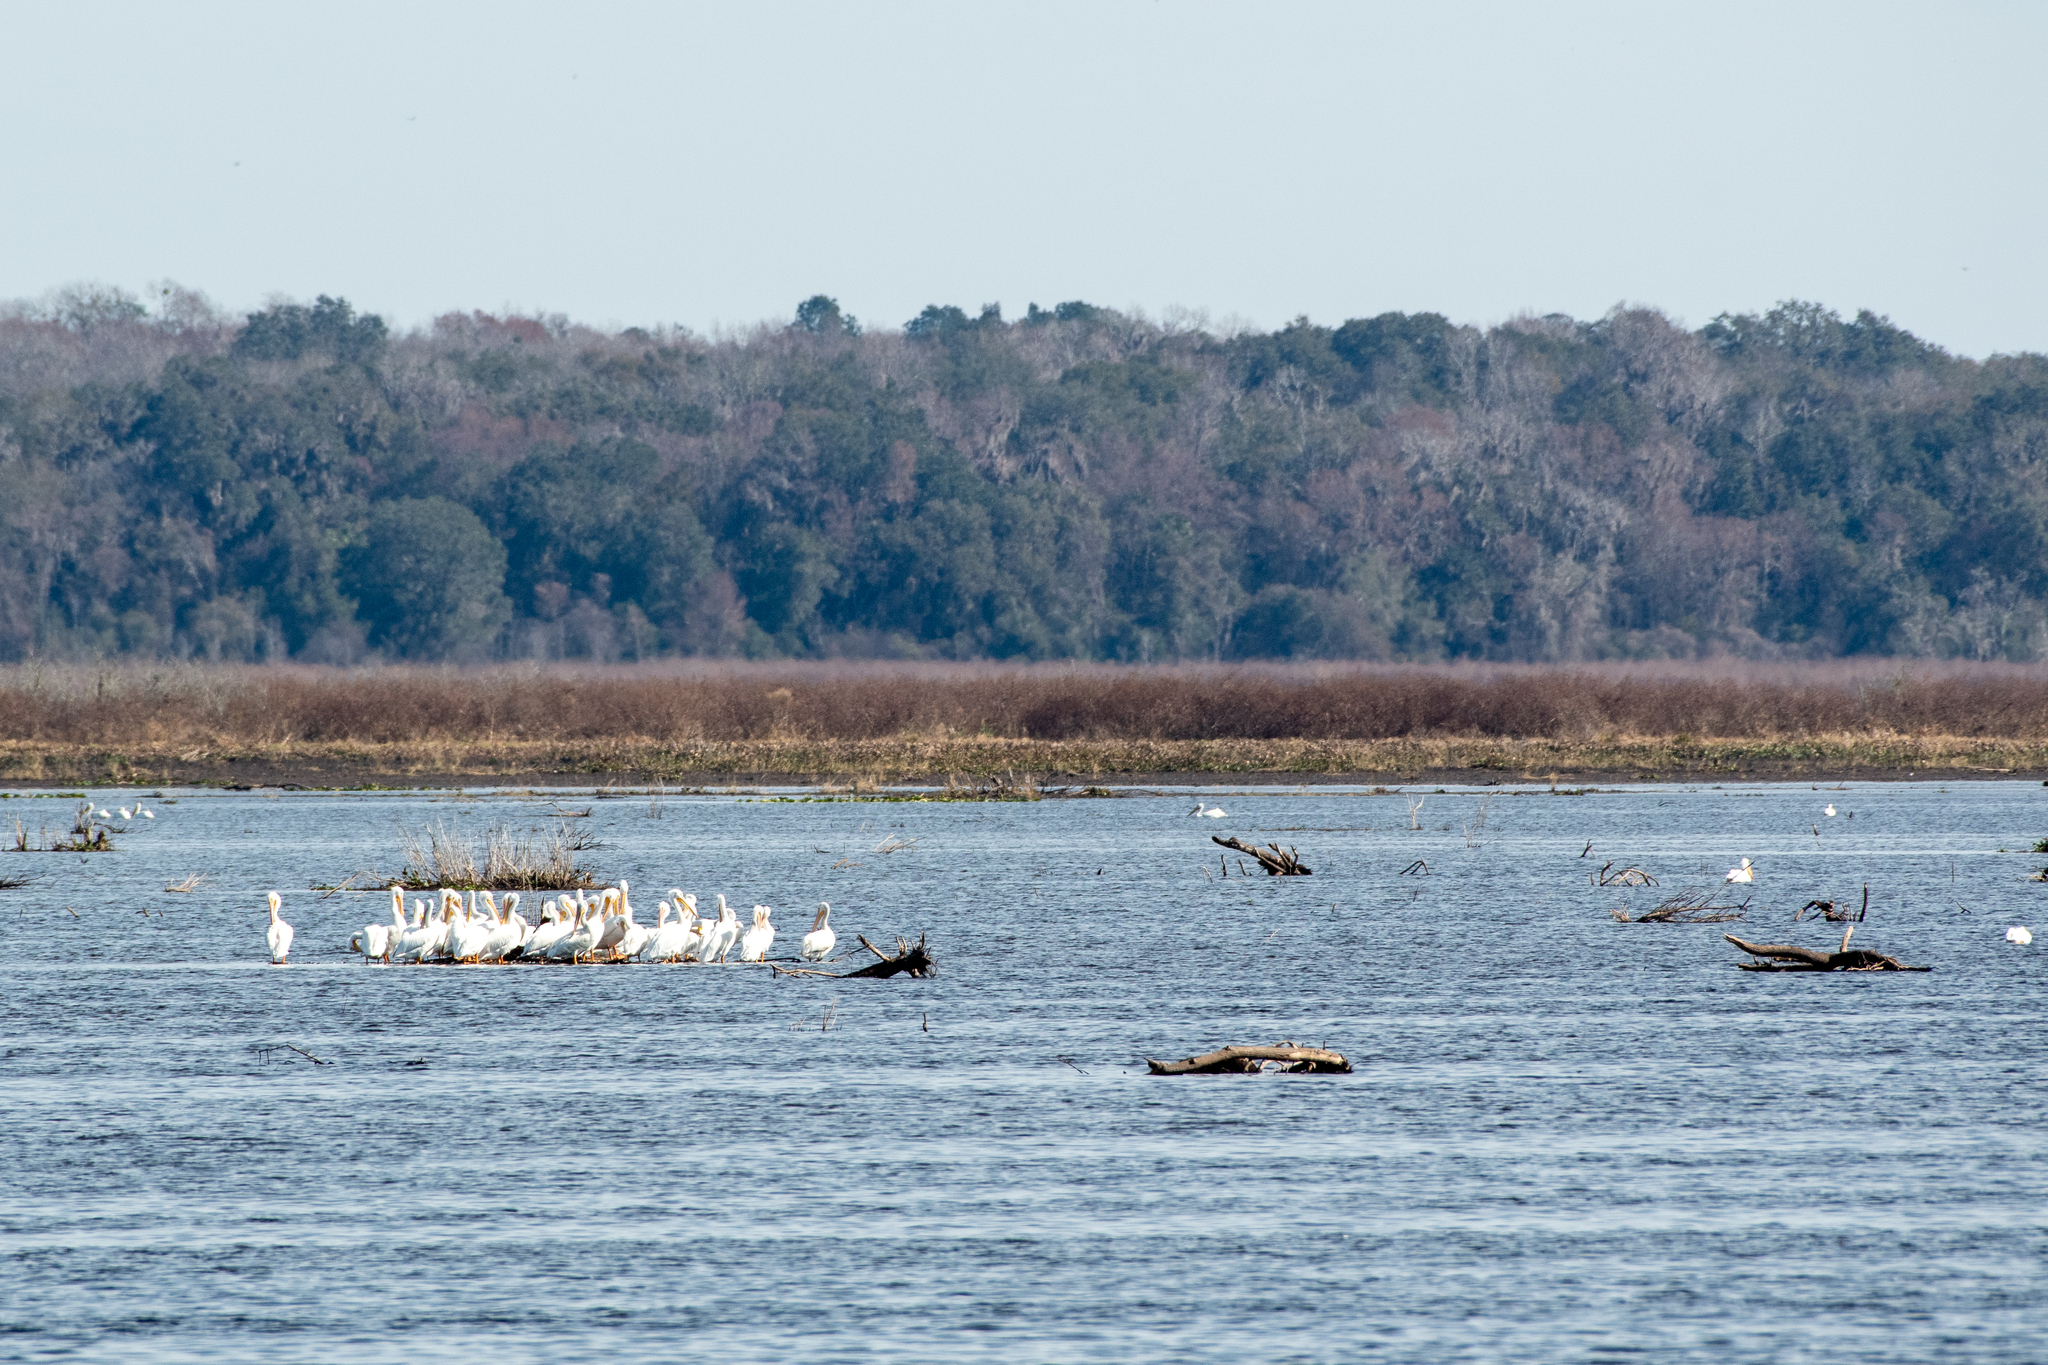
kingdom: Animalia
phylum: Chordata
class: Aves
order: Pelecaniformes
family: Pelecanidae
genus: Pelecanus
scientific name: Pelecanus erythrorhynchos
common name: American white pelican
